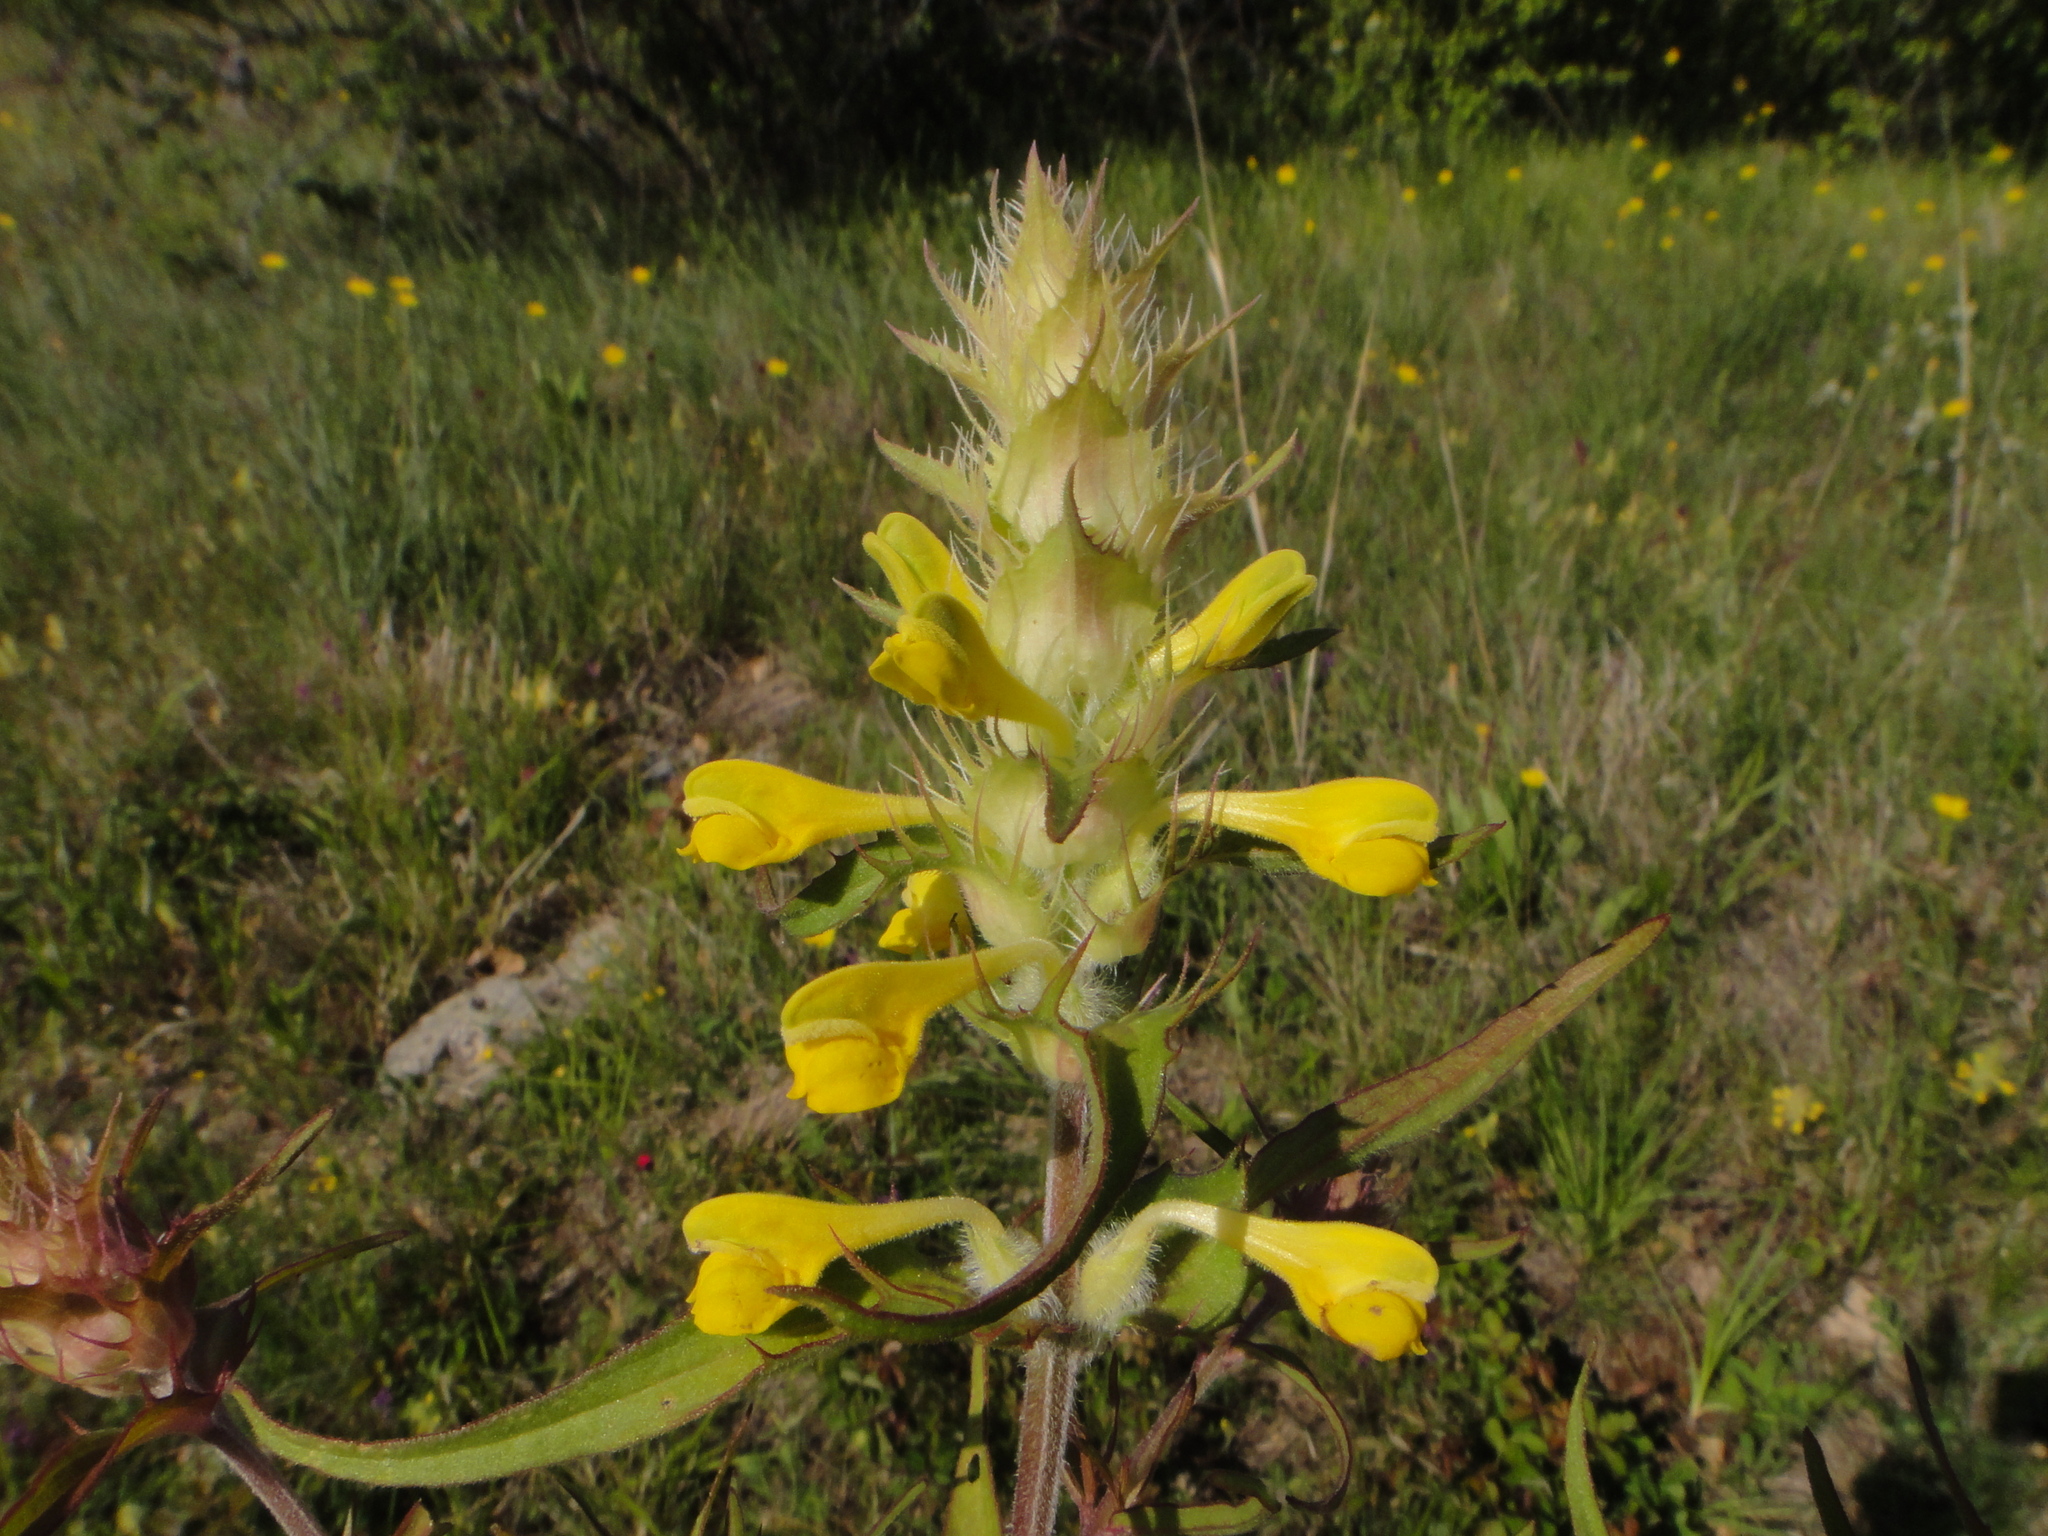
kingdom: Plantae
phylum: Tracheophyta
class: Magnoliopsida
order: Lamiales
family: Orobanchaceae
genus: Melampyrum
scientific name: Melampyrum barbatum
